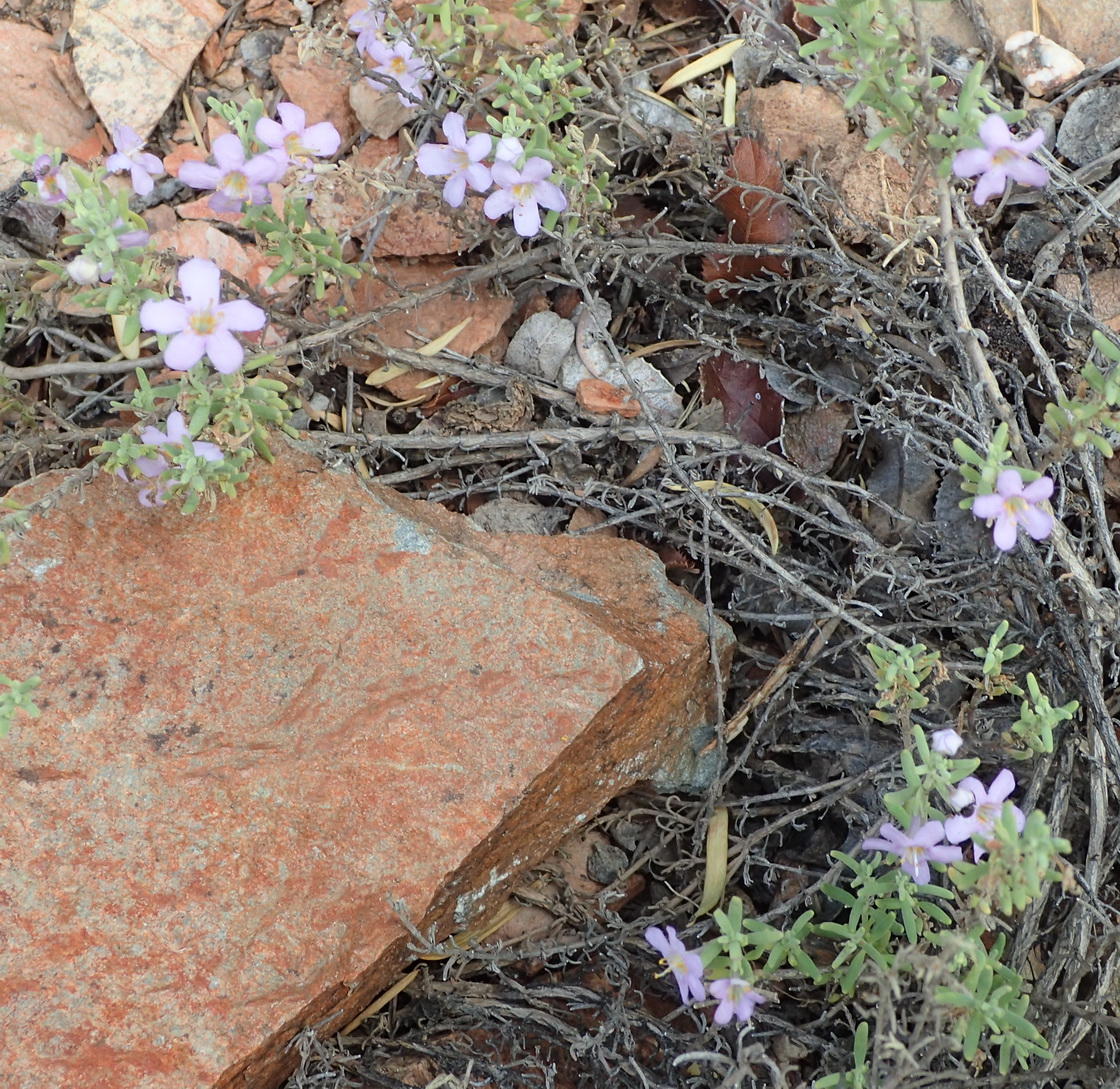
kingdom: Plantae
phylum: Tracheophyta
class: Magnoliopsida
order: Lamiales
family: Scrophulariaceae
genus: Chaenostoma
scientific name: Chaenostoma revolutum
